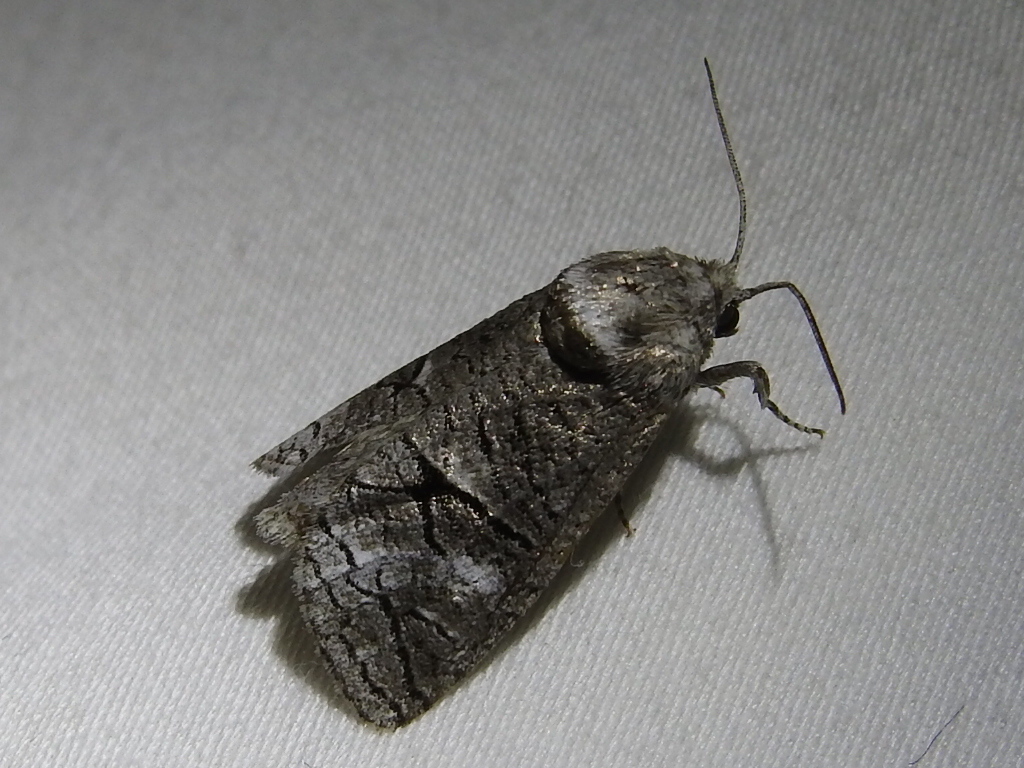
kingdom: Animalia
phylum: Arthropoda
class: Insecta
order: Lepidoptera
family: Cossidae
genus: Fania
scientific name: Fania nanus
